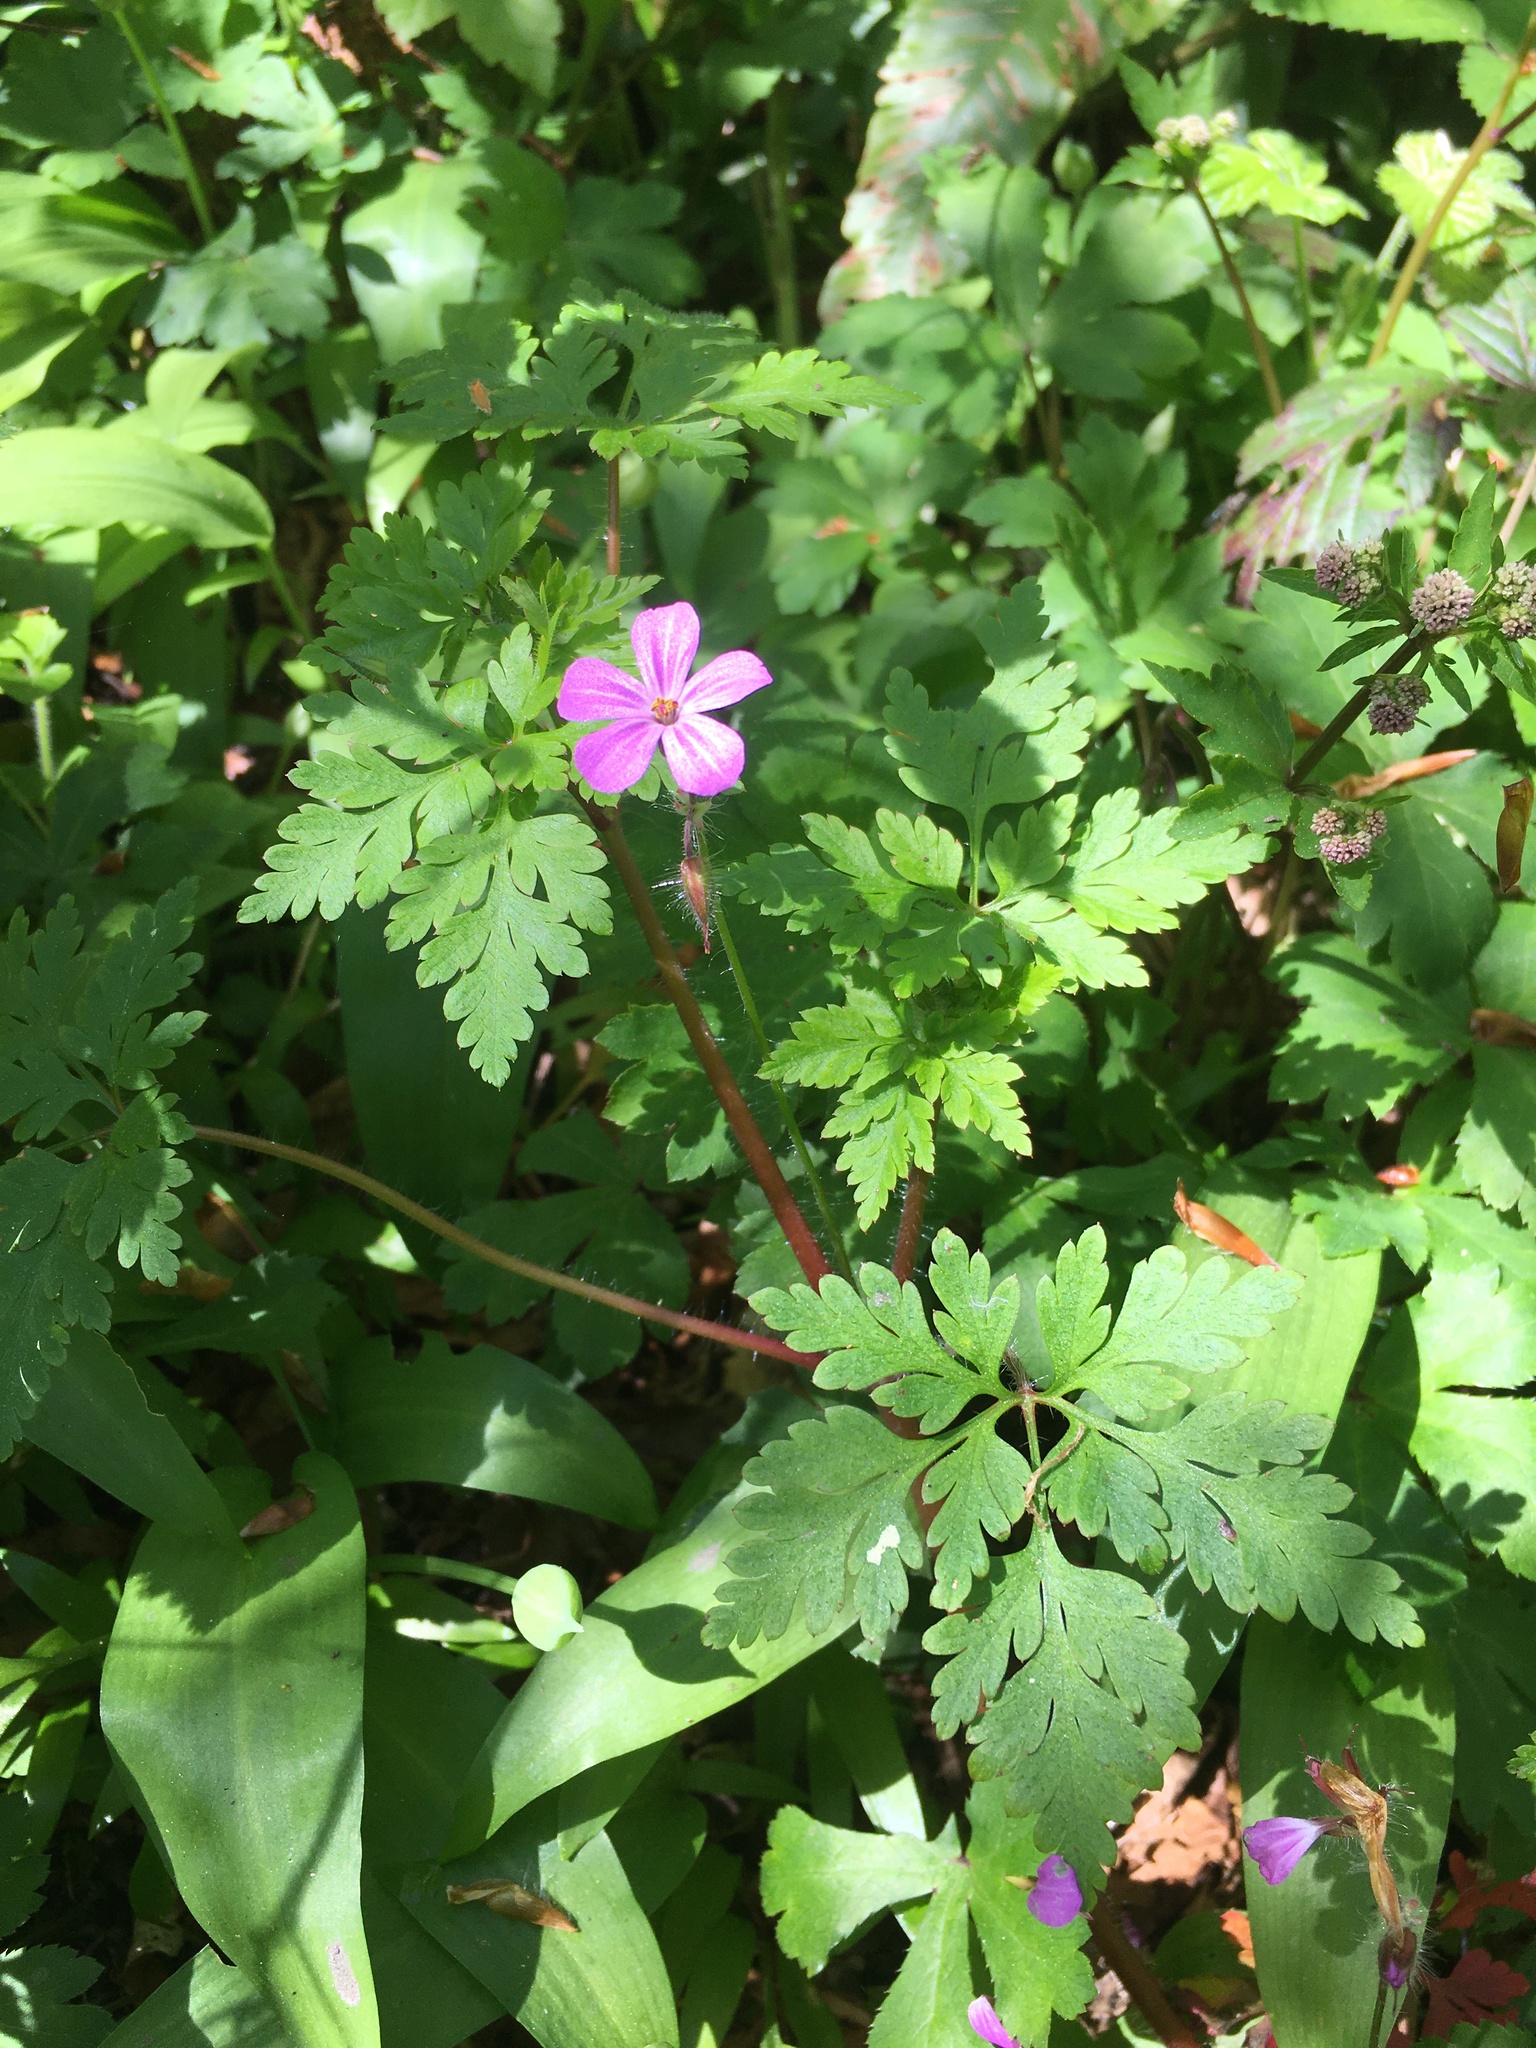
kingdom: Plantae
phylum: Tracheophyta
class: Magnoliopsida
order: Geraniales
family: Geraniaceae
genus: Geranium
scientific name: Geranium robertianum
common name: Herb-robert
